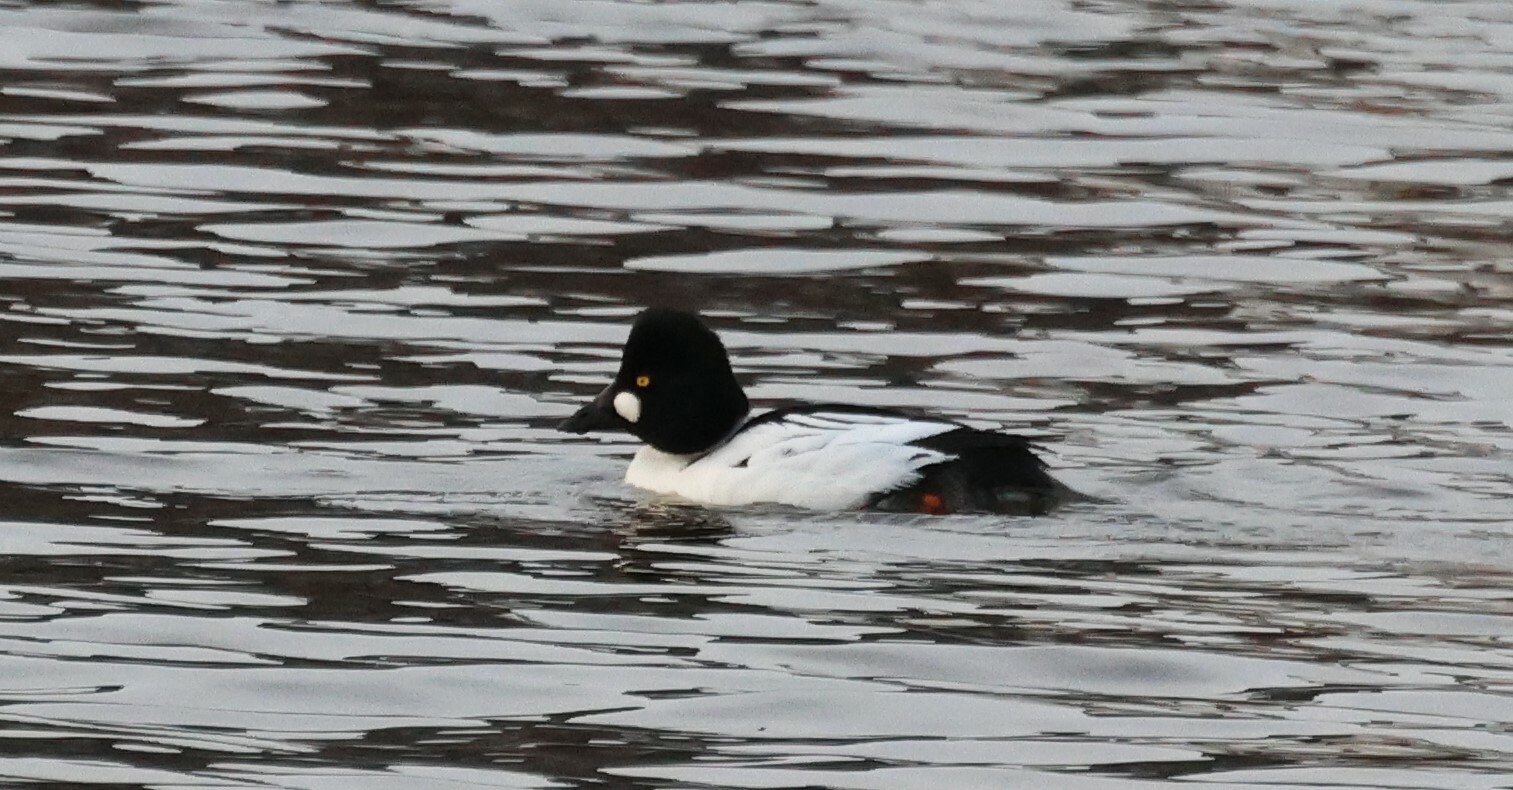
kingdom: Animalia
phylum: Chordata
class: Aves
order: Anseriformes
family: Anatidae
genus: Bucephala
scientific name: Bucephala clangula
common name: Common goldeneye
